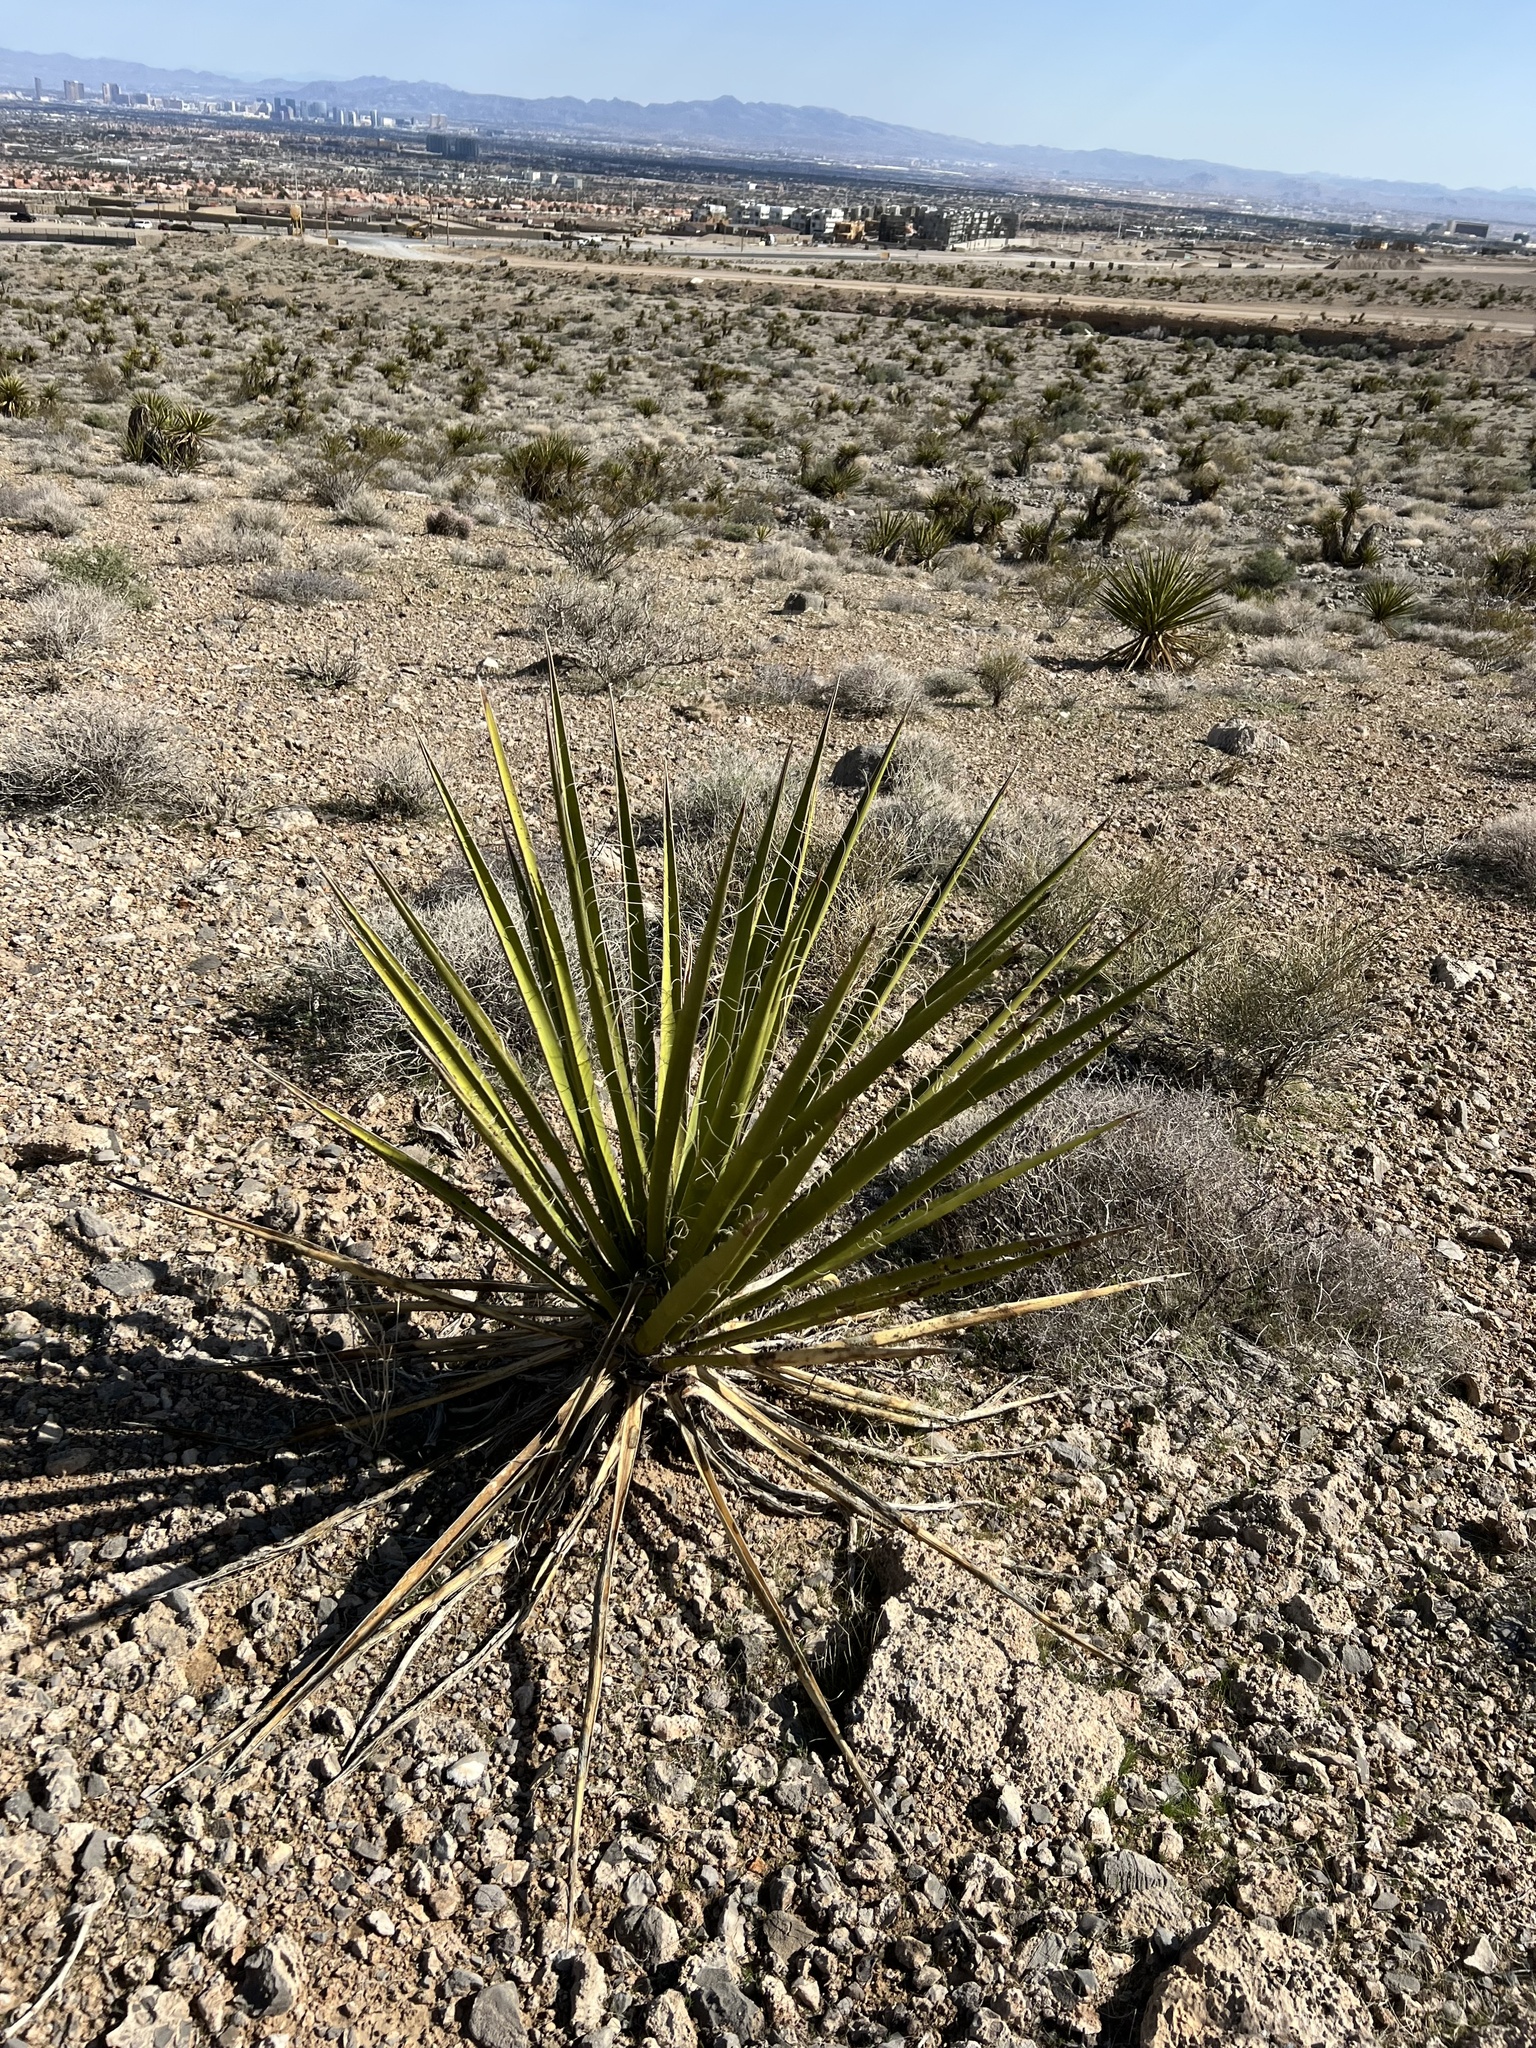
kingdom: Plantae
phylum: Tracheophyta
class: Liliopsida
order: Asparagales
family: Asparagaceae
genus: Yucca
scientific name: Yucca schidigera
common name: Mojave yucca
